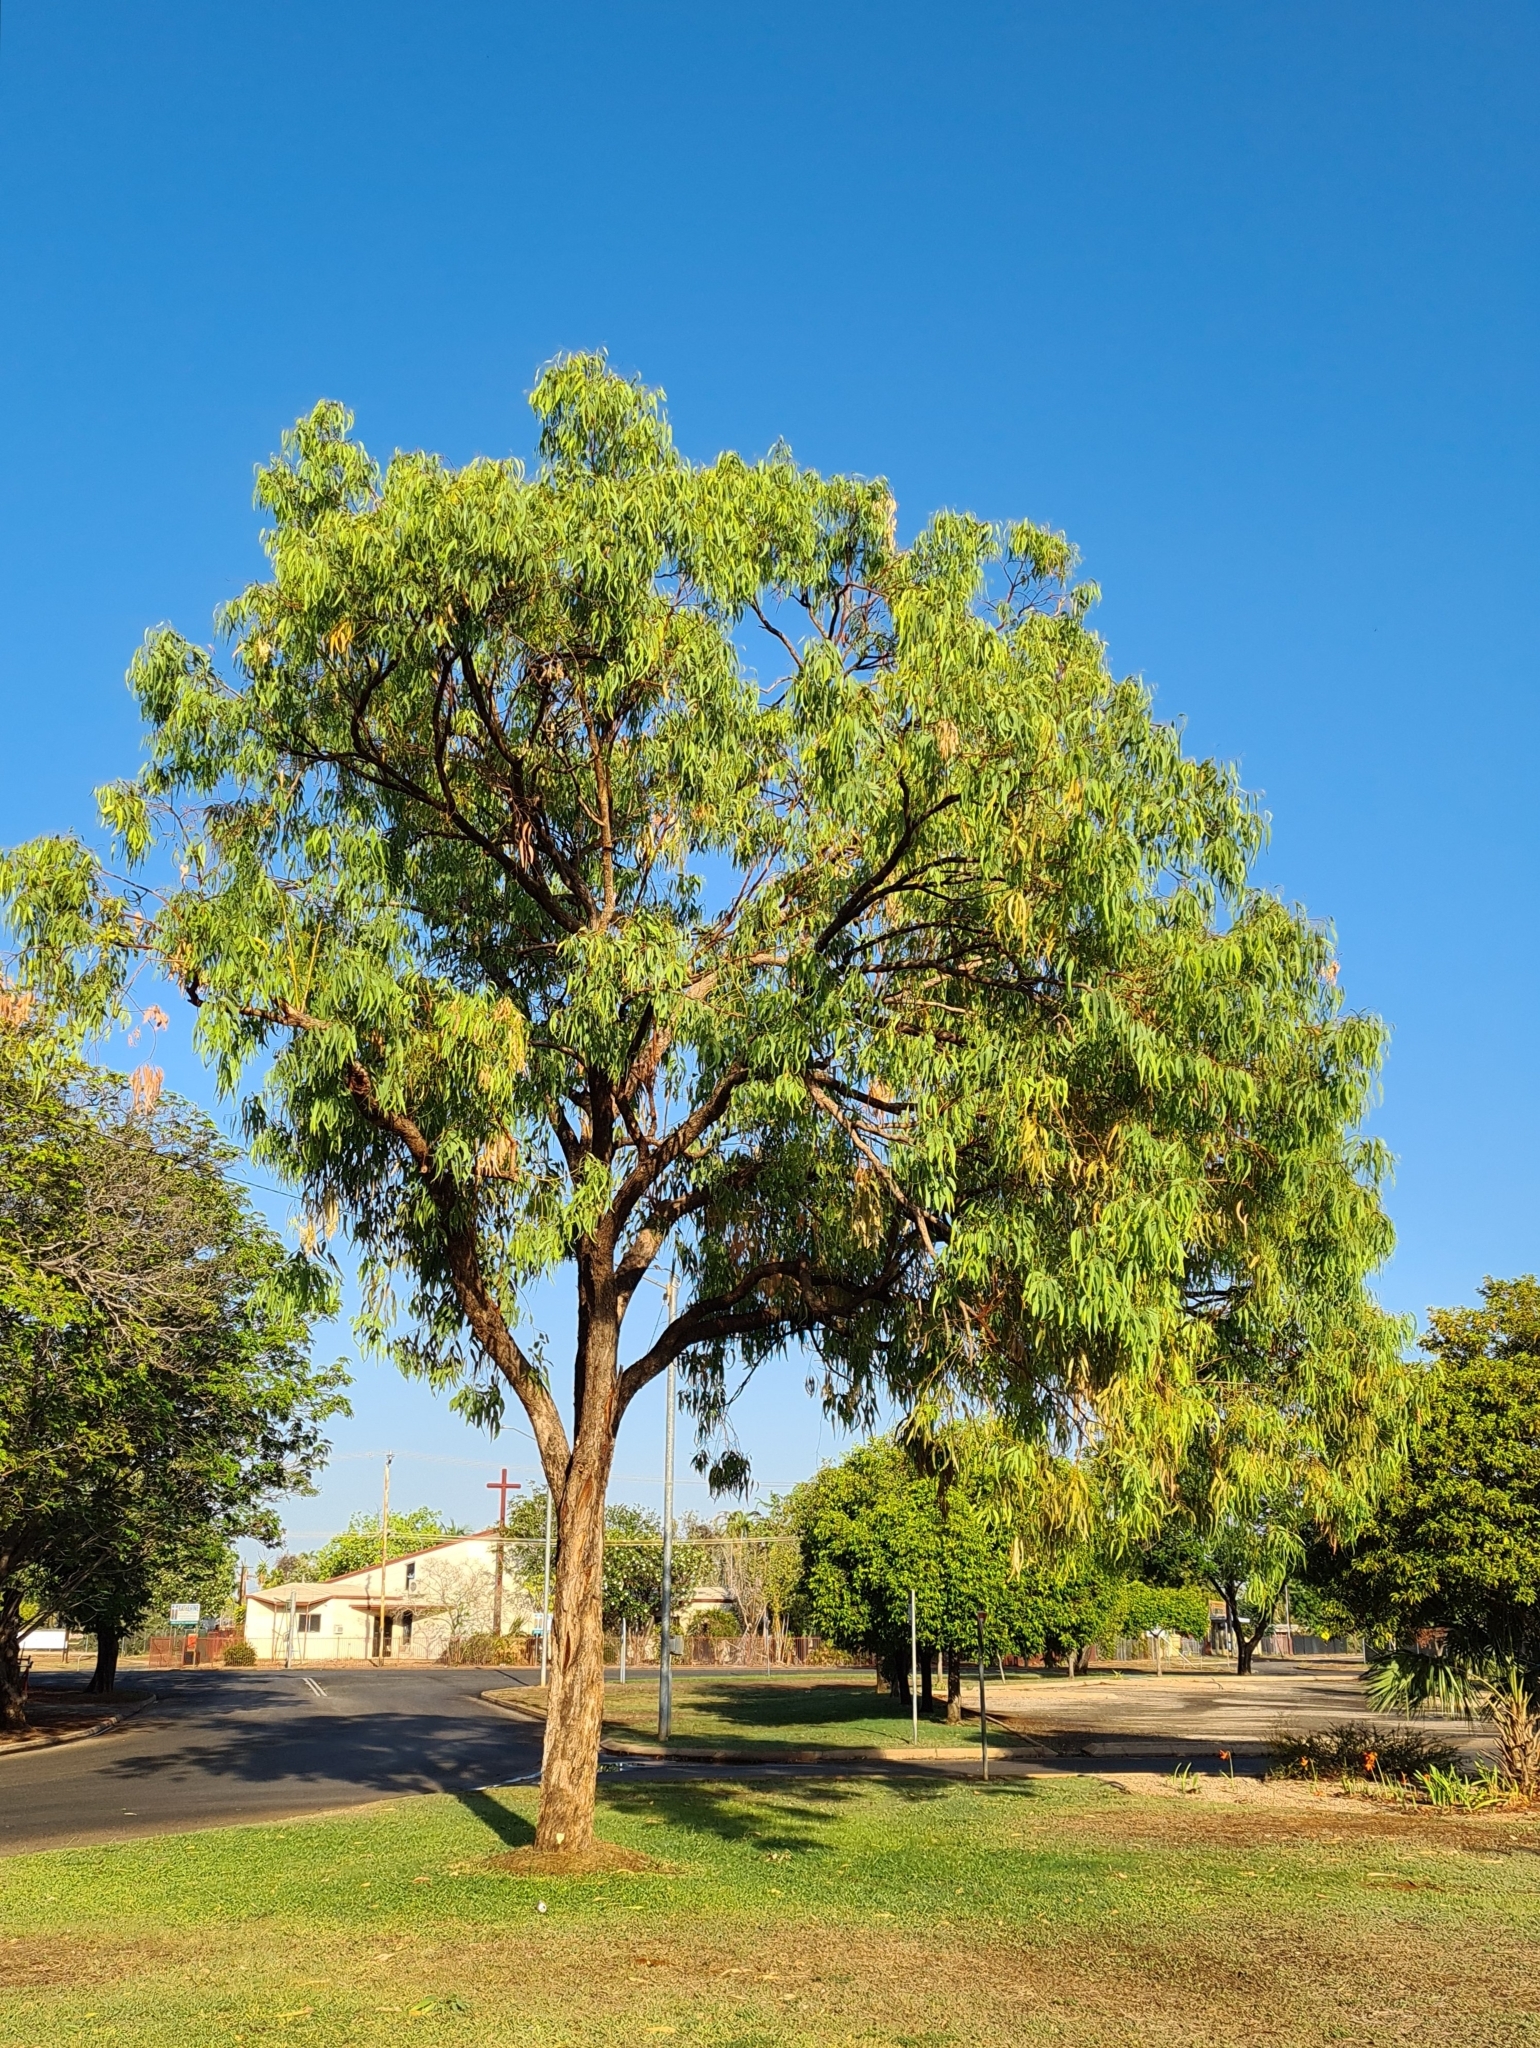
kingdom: Plantae
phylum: Tracheophyta
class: Magnoliopsida
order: Myrtales
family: Myrtaceae
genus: Eucalyptus
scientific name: Eucalyptus patellaris
